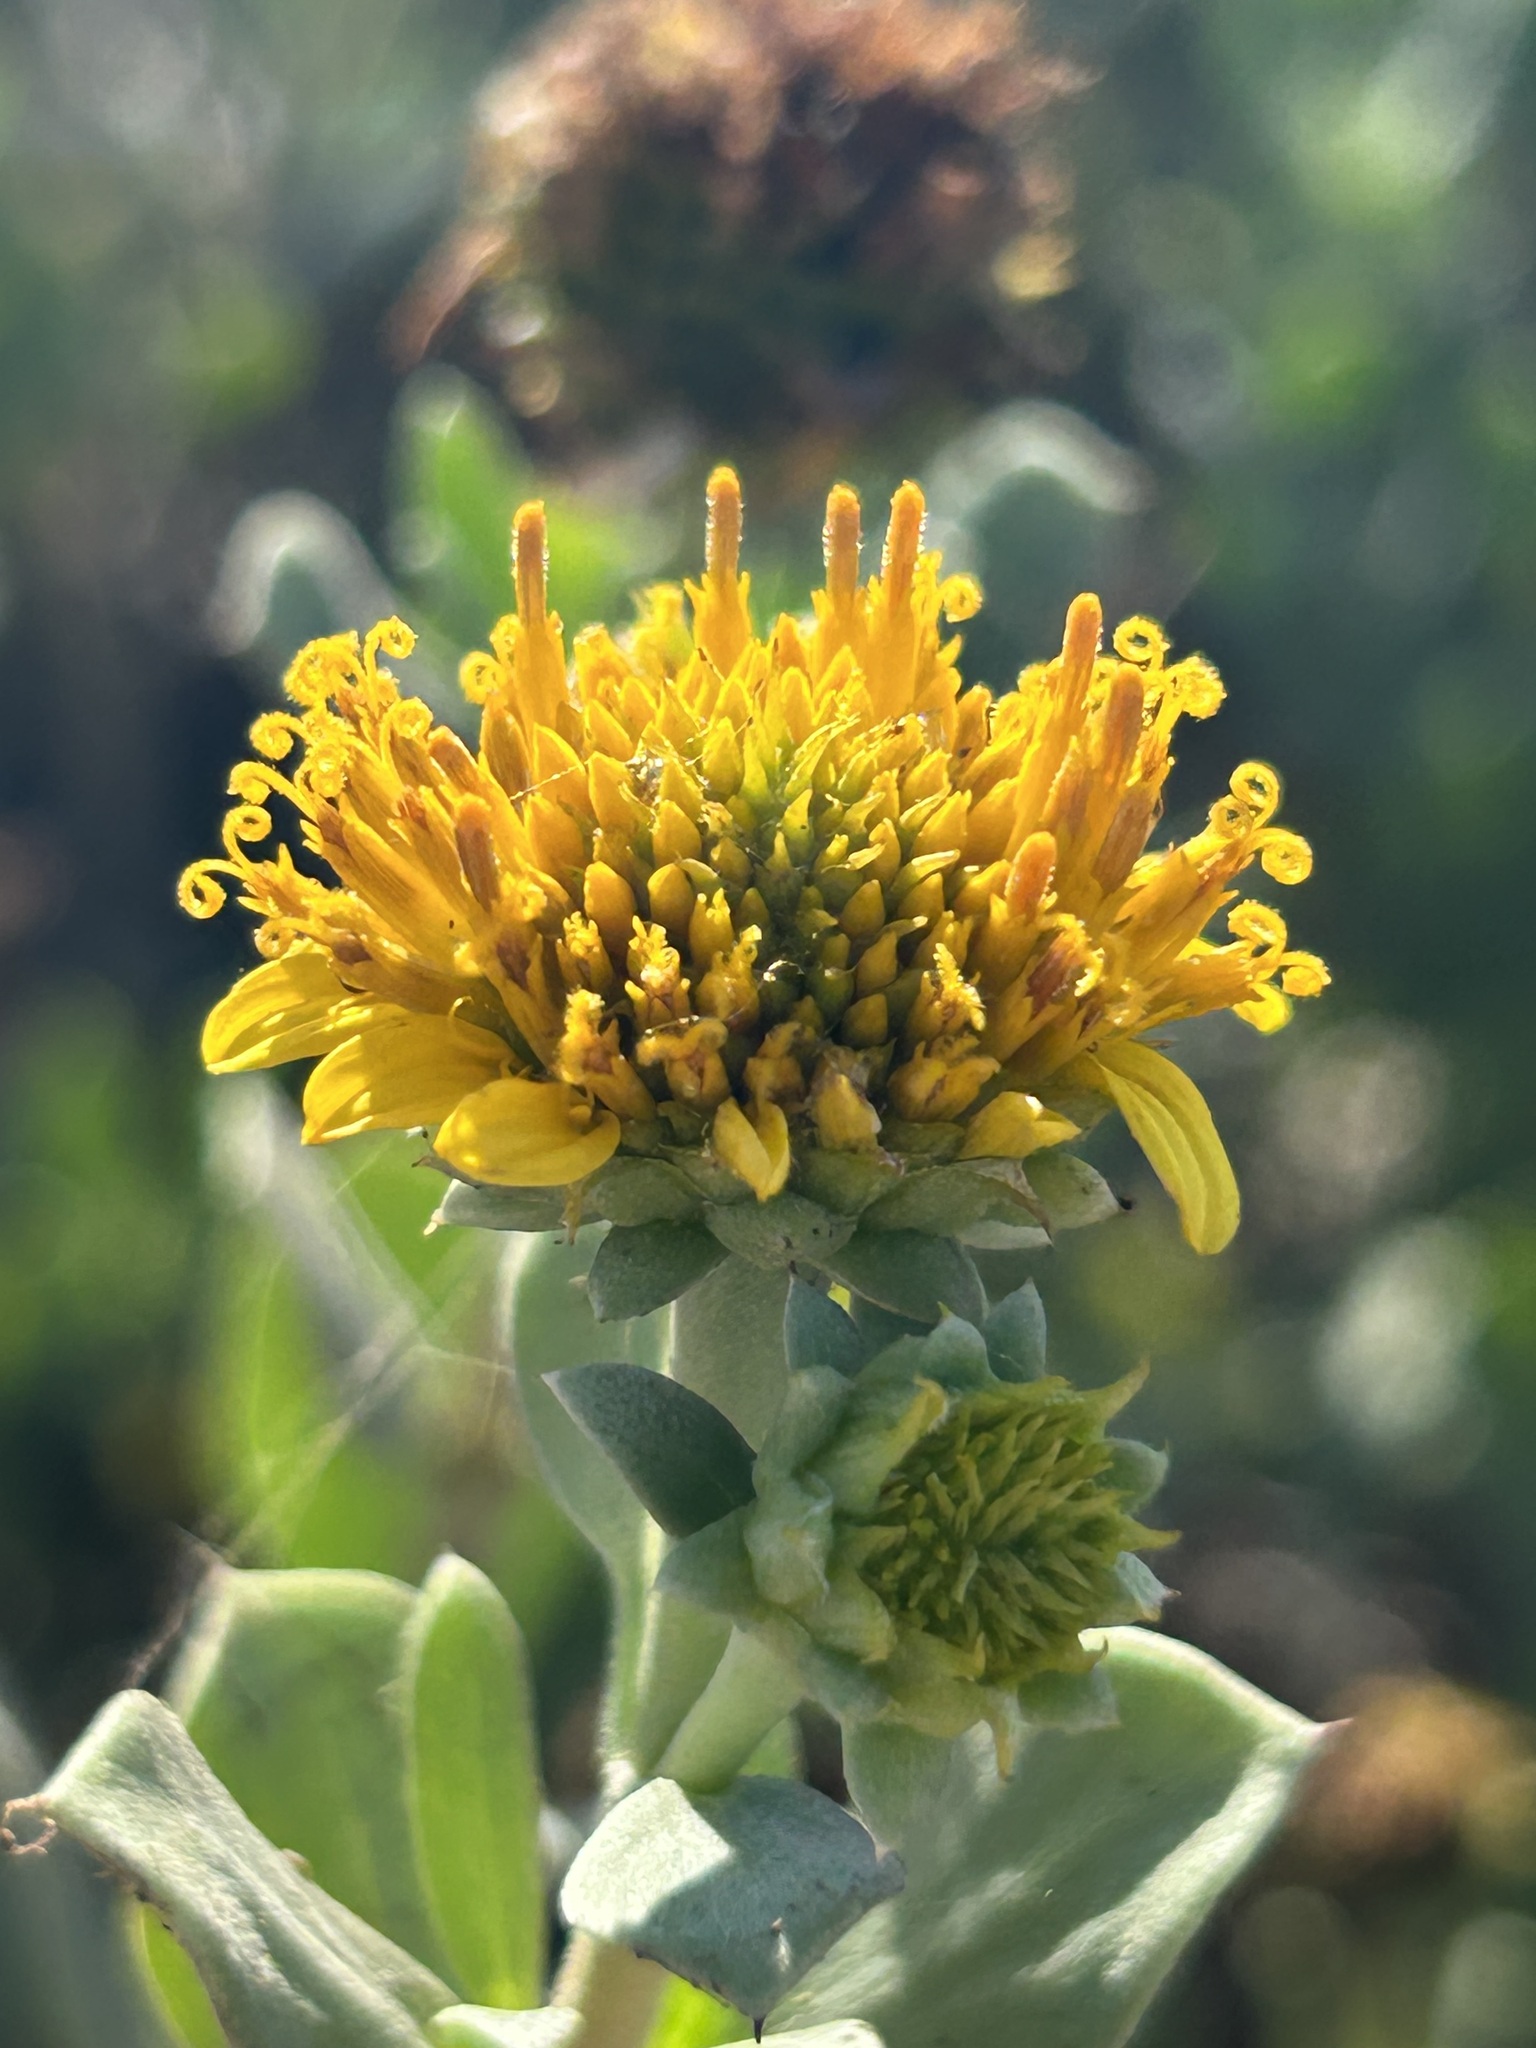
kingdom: Plantae
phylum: Tracheophyta
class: Magnoliopsida
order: Asterales
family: Asteraceae
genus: Borrichia
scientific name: Borrichia frutescens
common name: Sea oxeye
